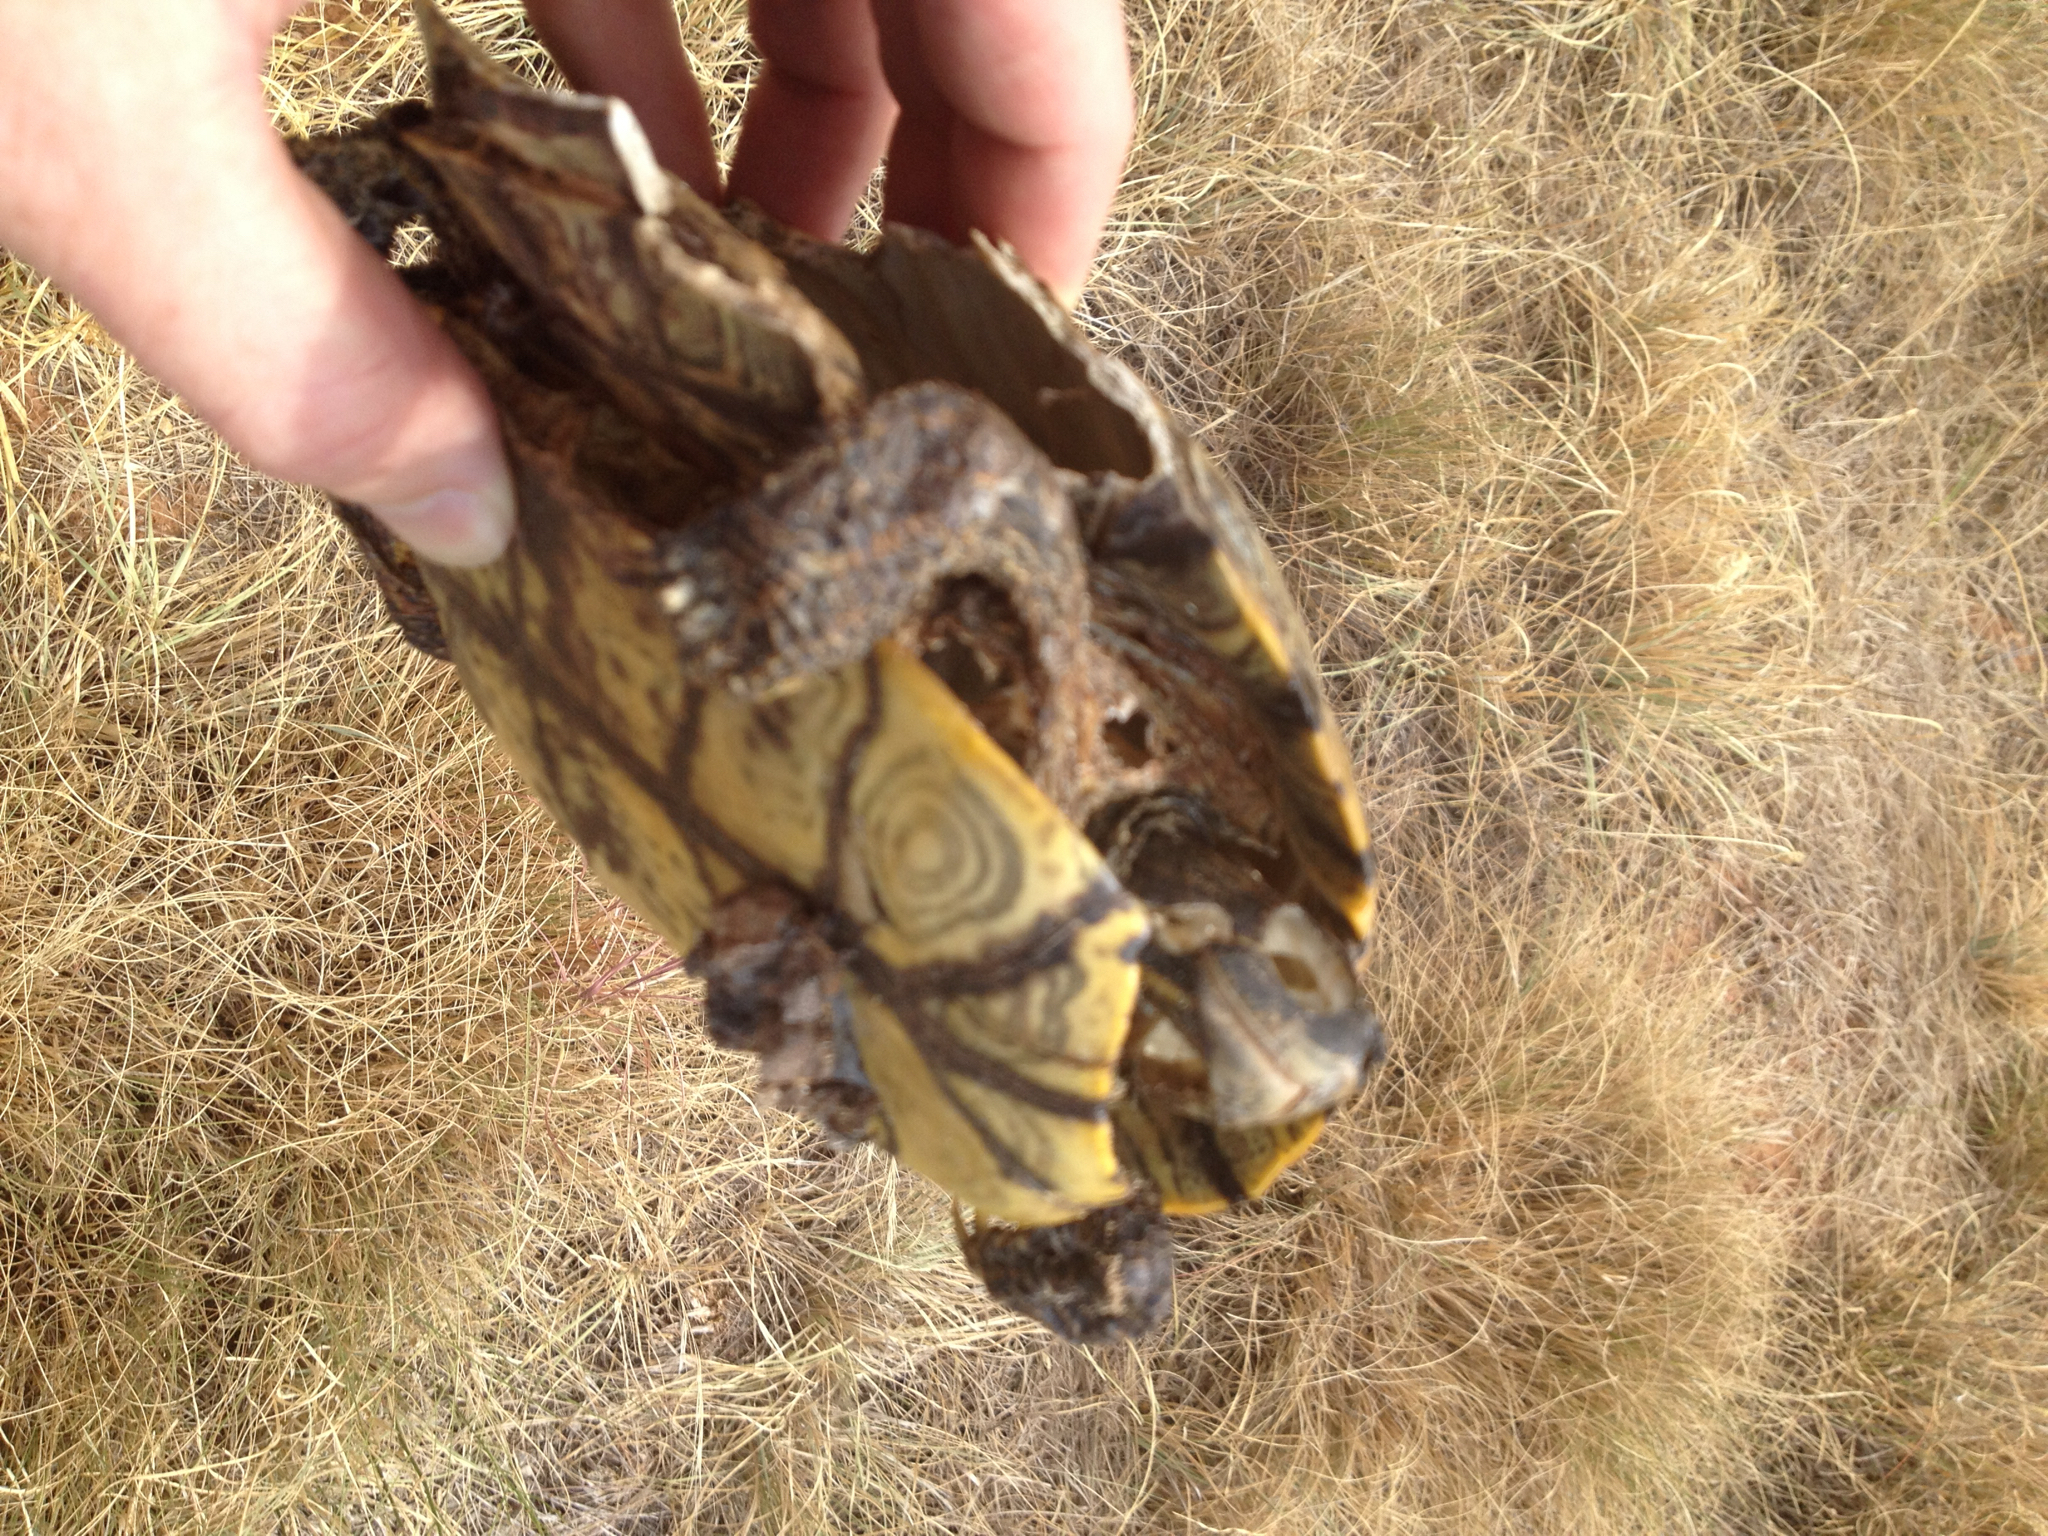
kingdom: Animalia
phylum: Chordata
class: Testudines
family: Emydidae
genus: Trachemys
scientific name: Trachemys scripta
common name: Slider
